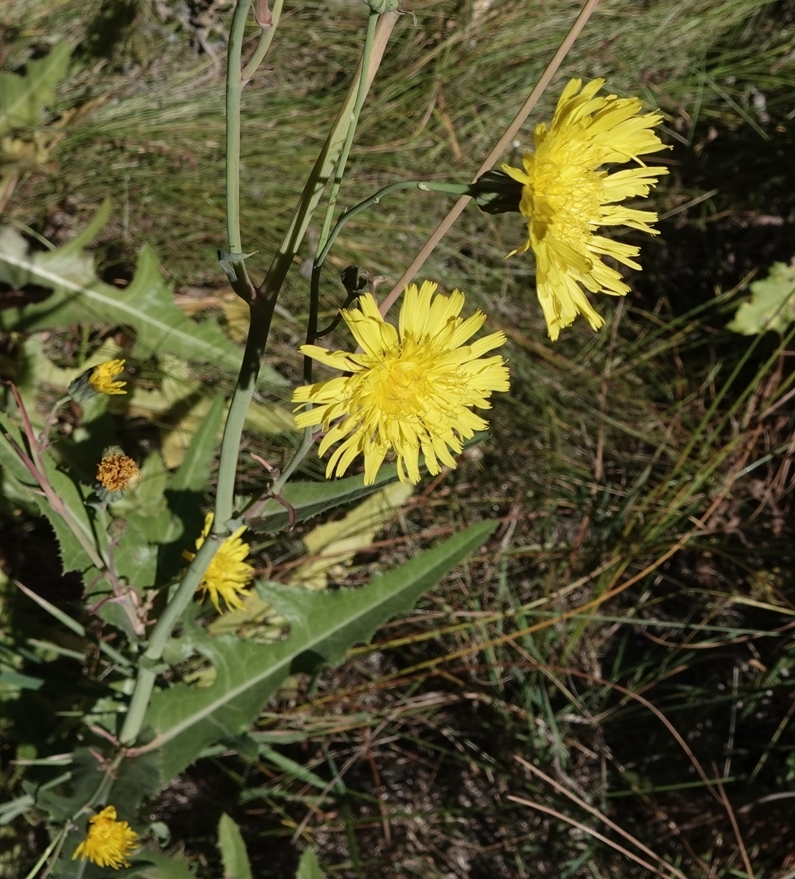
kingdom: Plantae
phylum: Tracheophyta
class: Magnoliopsida
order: Asterales
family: Asteraceae
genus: Sonchus
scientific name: Sonchus arvensis
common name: Perennial sow-thistle
